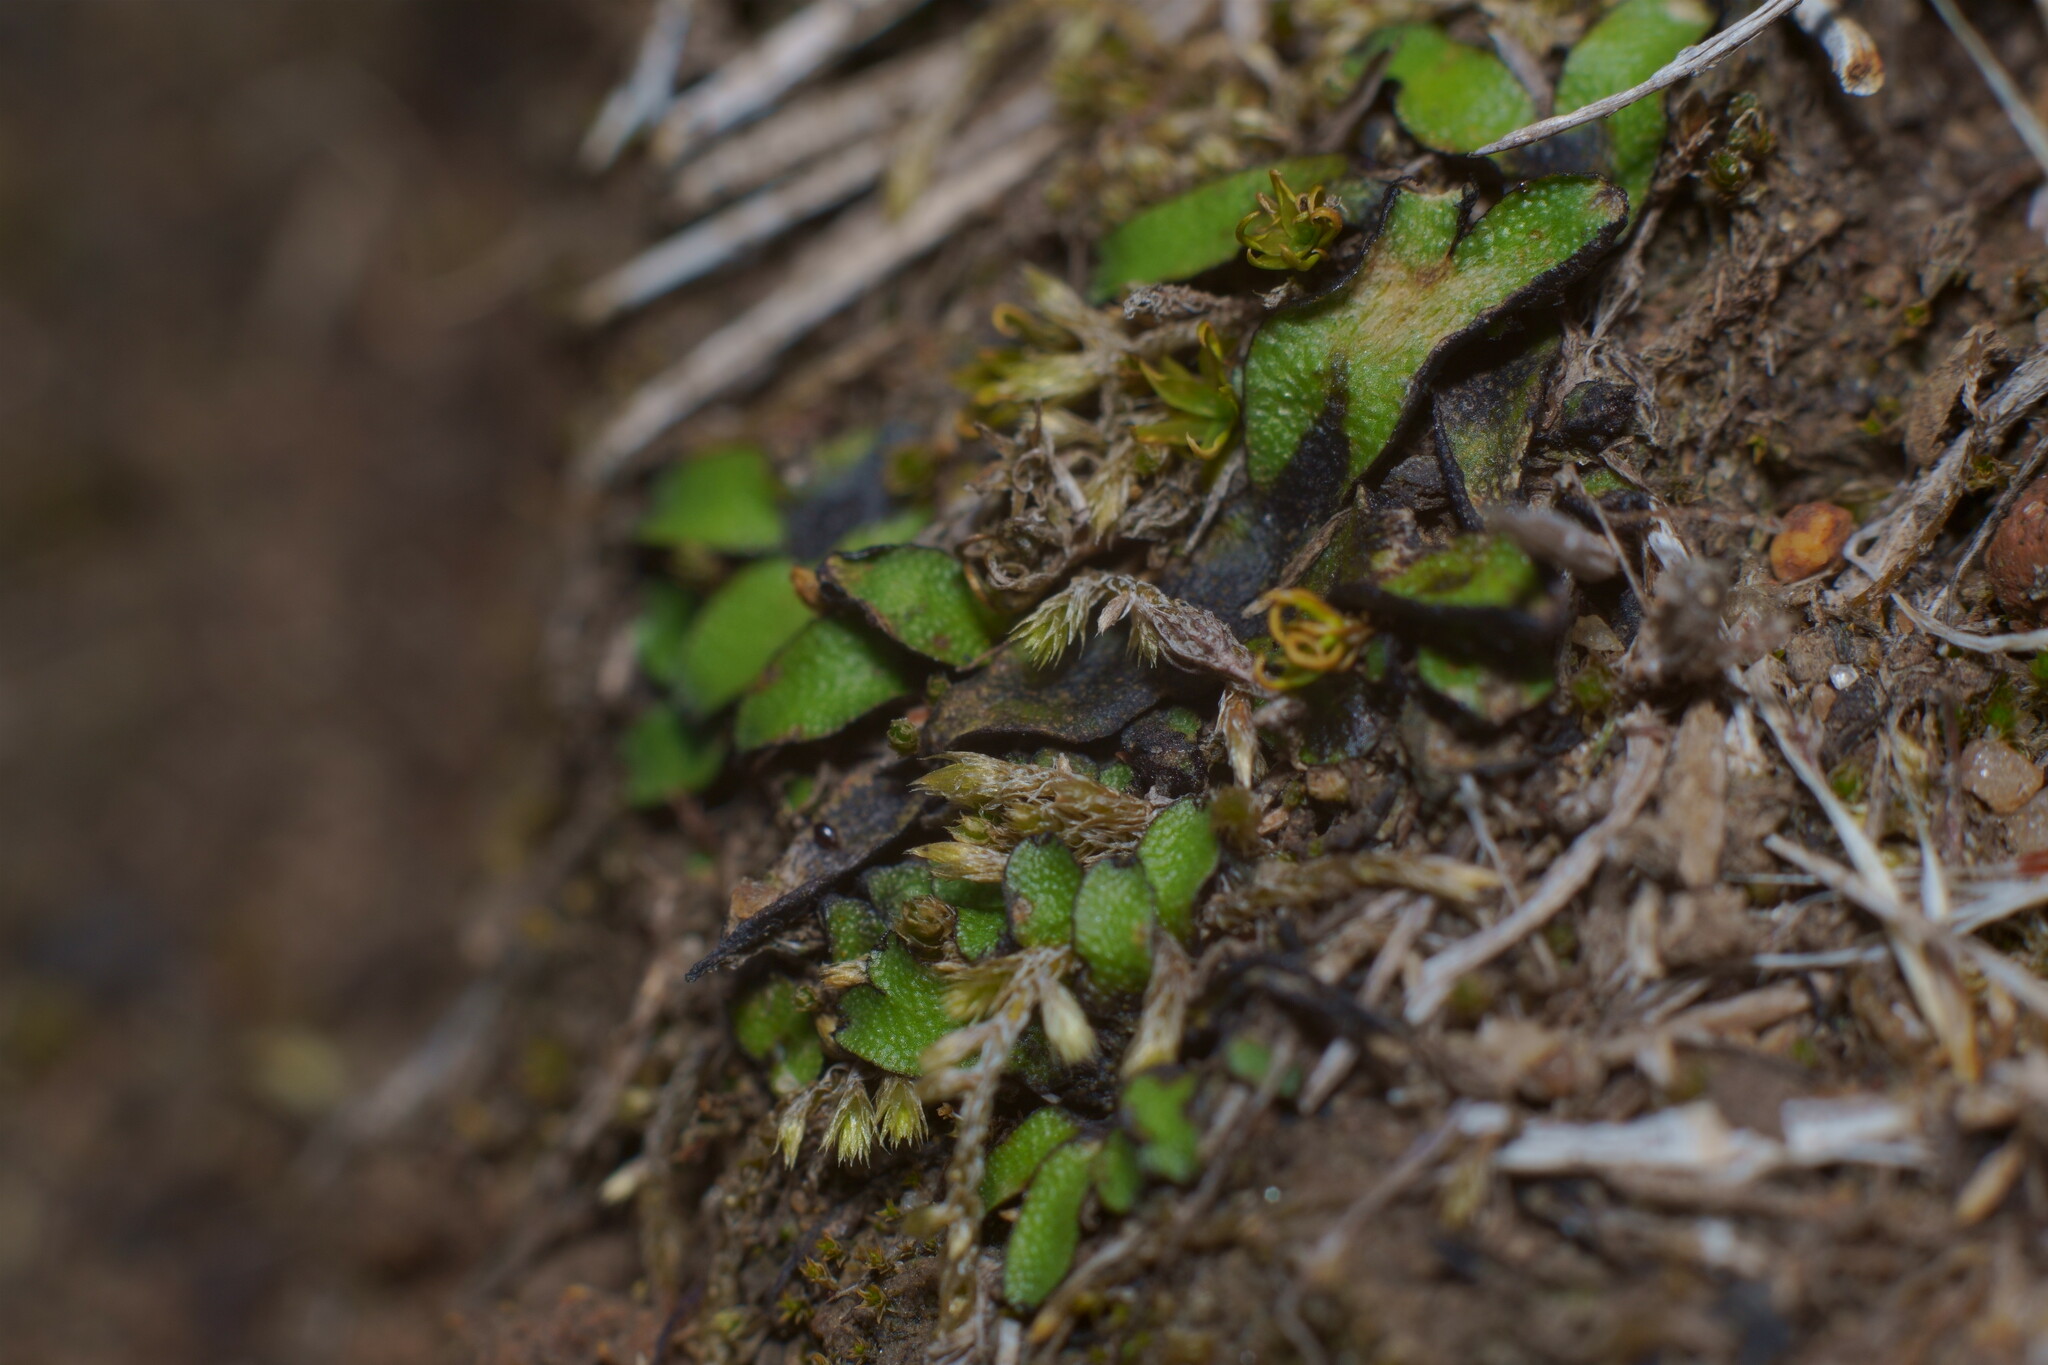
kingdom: Plantae
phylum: Marchantiophyta
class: Marchantiopsida
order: Marchantiales
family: Targioniaceae
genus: Targionia
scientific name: Targionia hypophylla
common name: Orobus-seed liverwort
